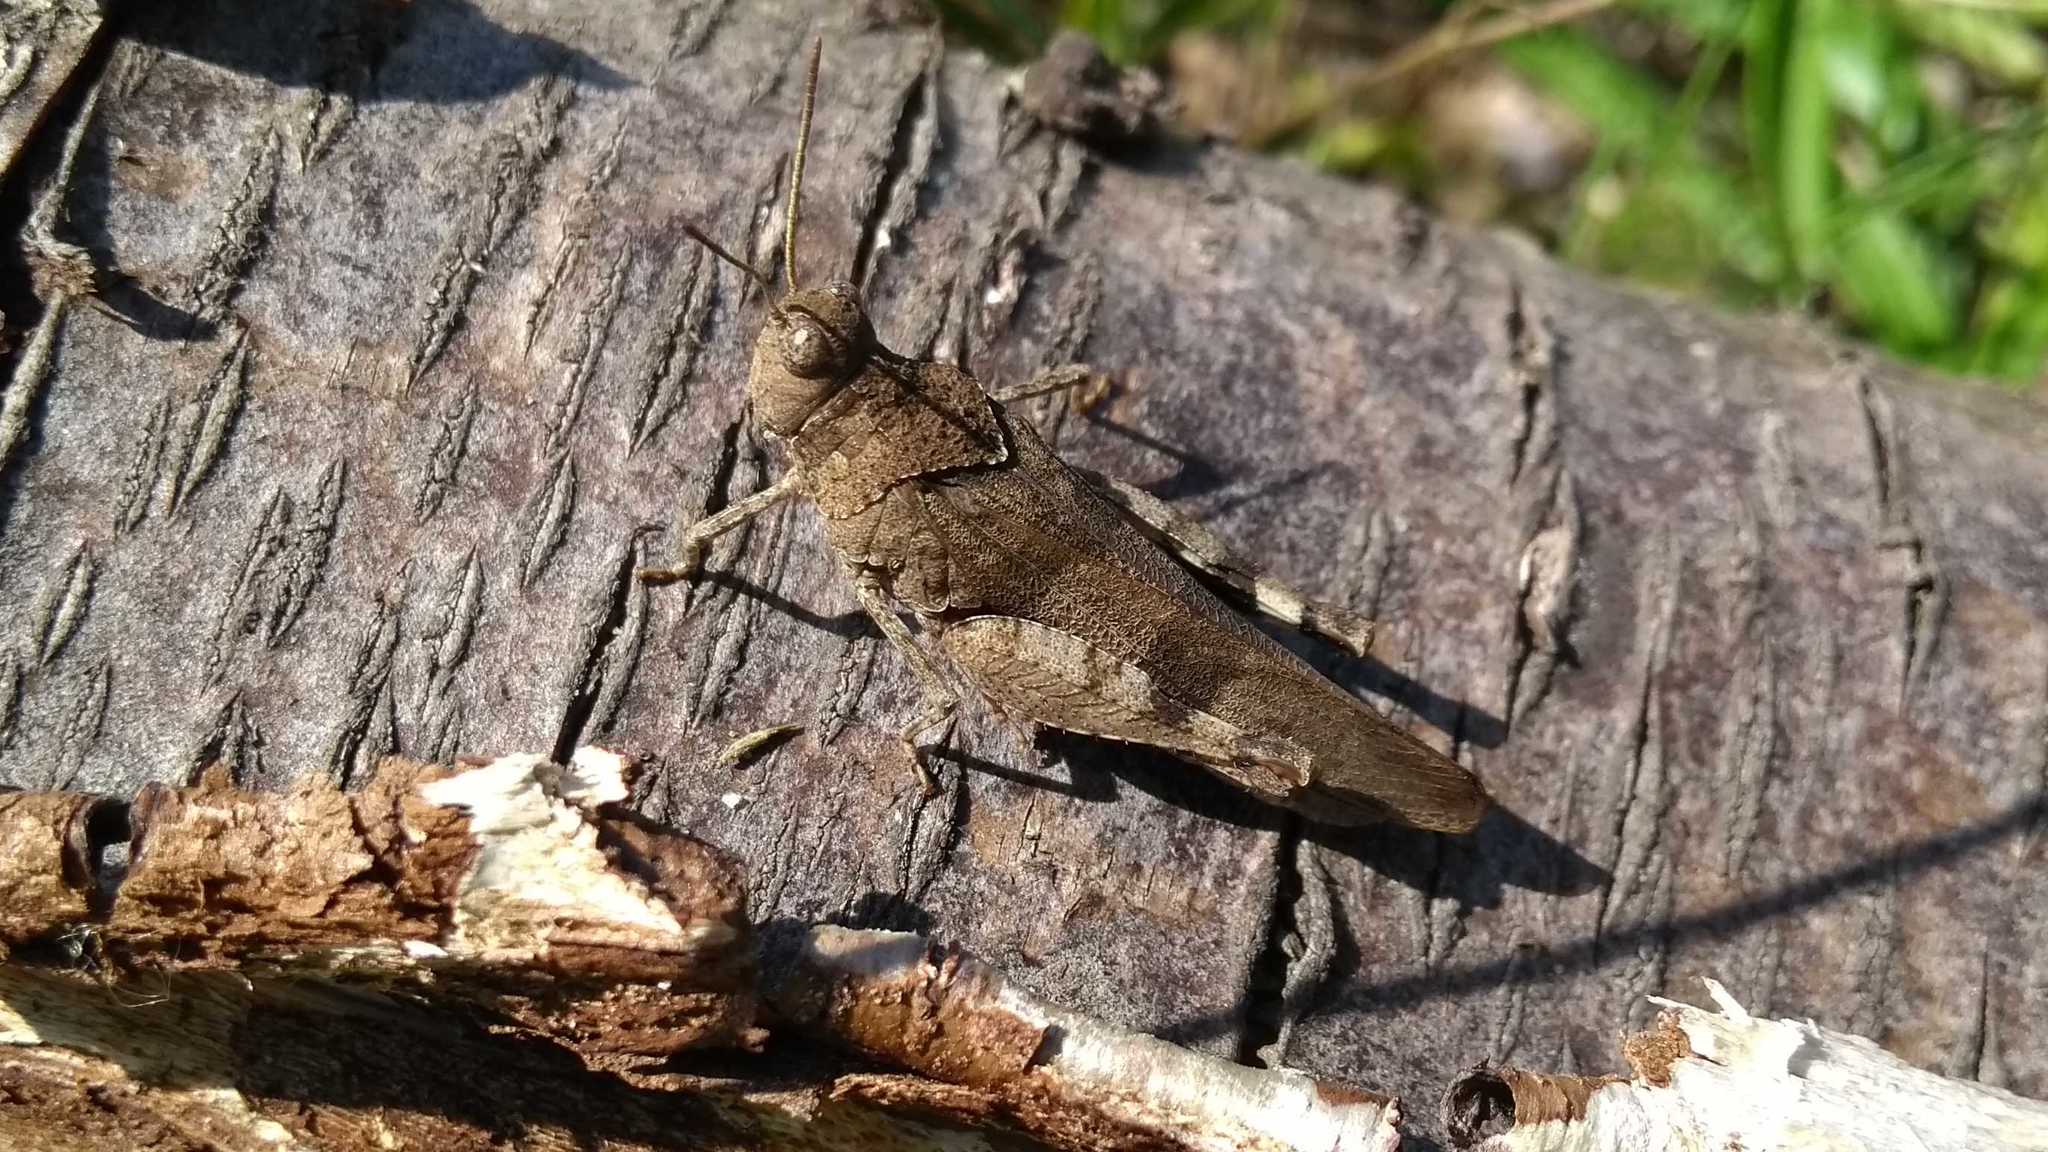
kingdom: Animalia
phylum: Arthropoda
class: Insecta
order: Orthoptera
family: Acrididae
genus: Oedipoda
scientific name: Oedipoda caerulescens
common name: Blue-winged grasshopper
